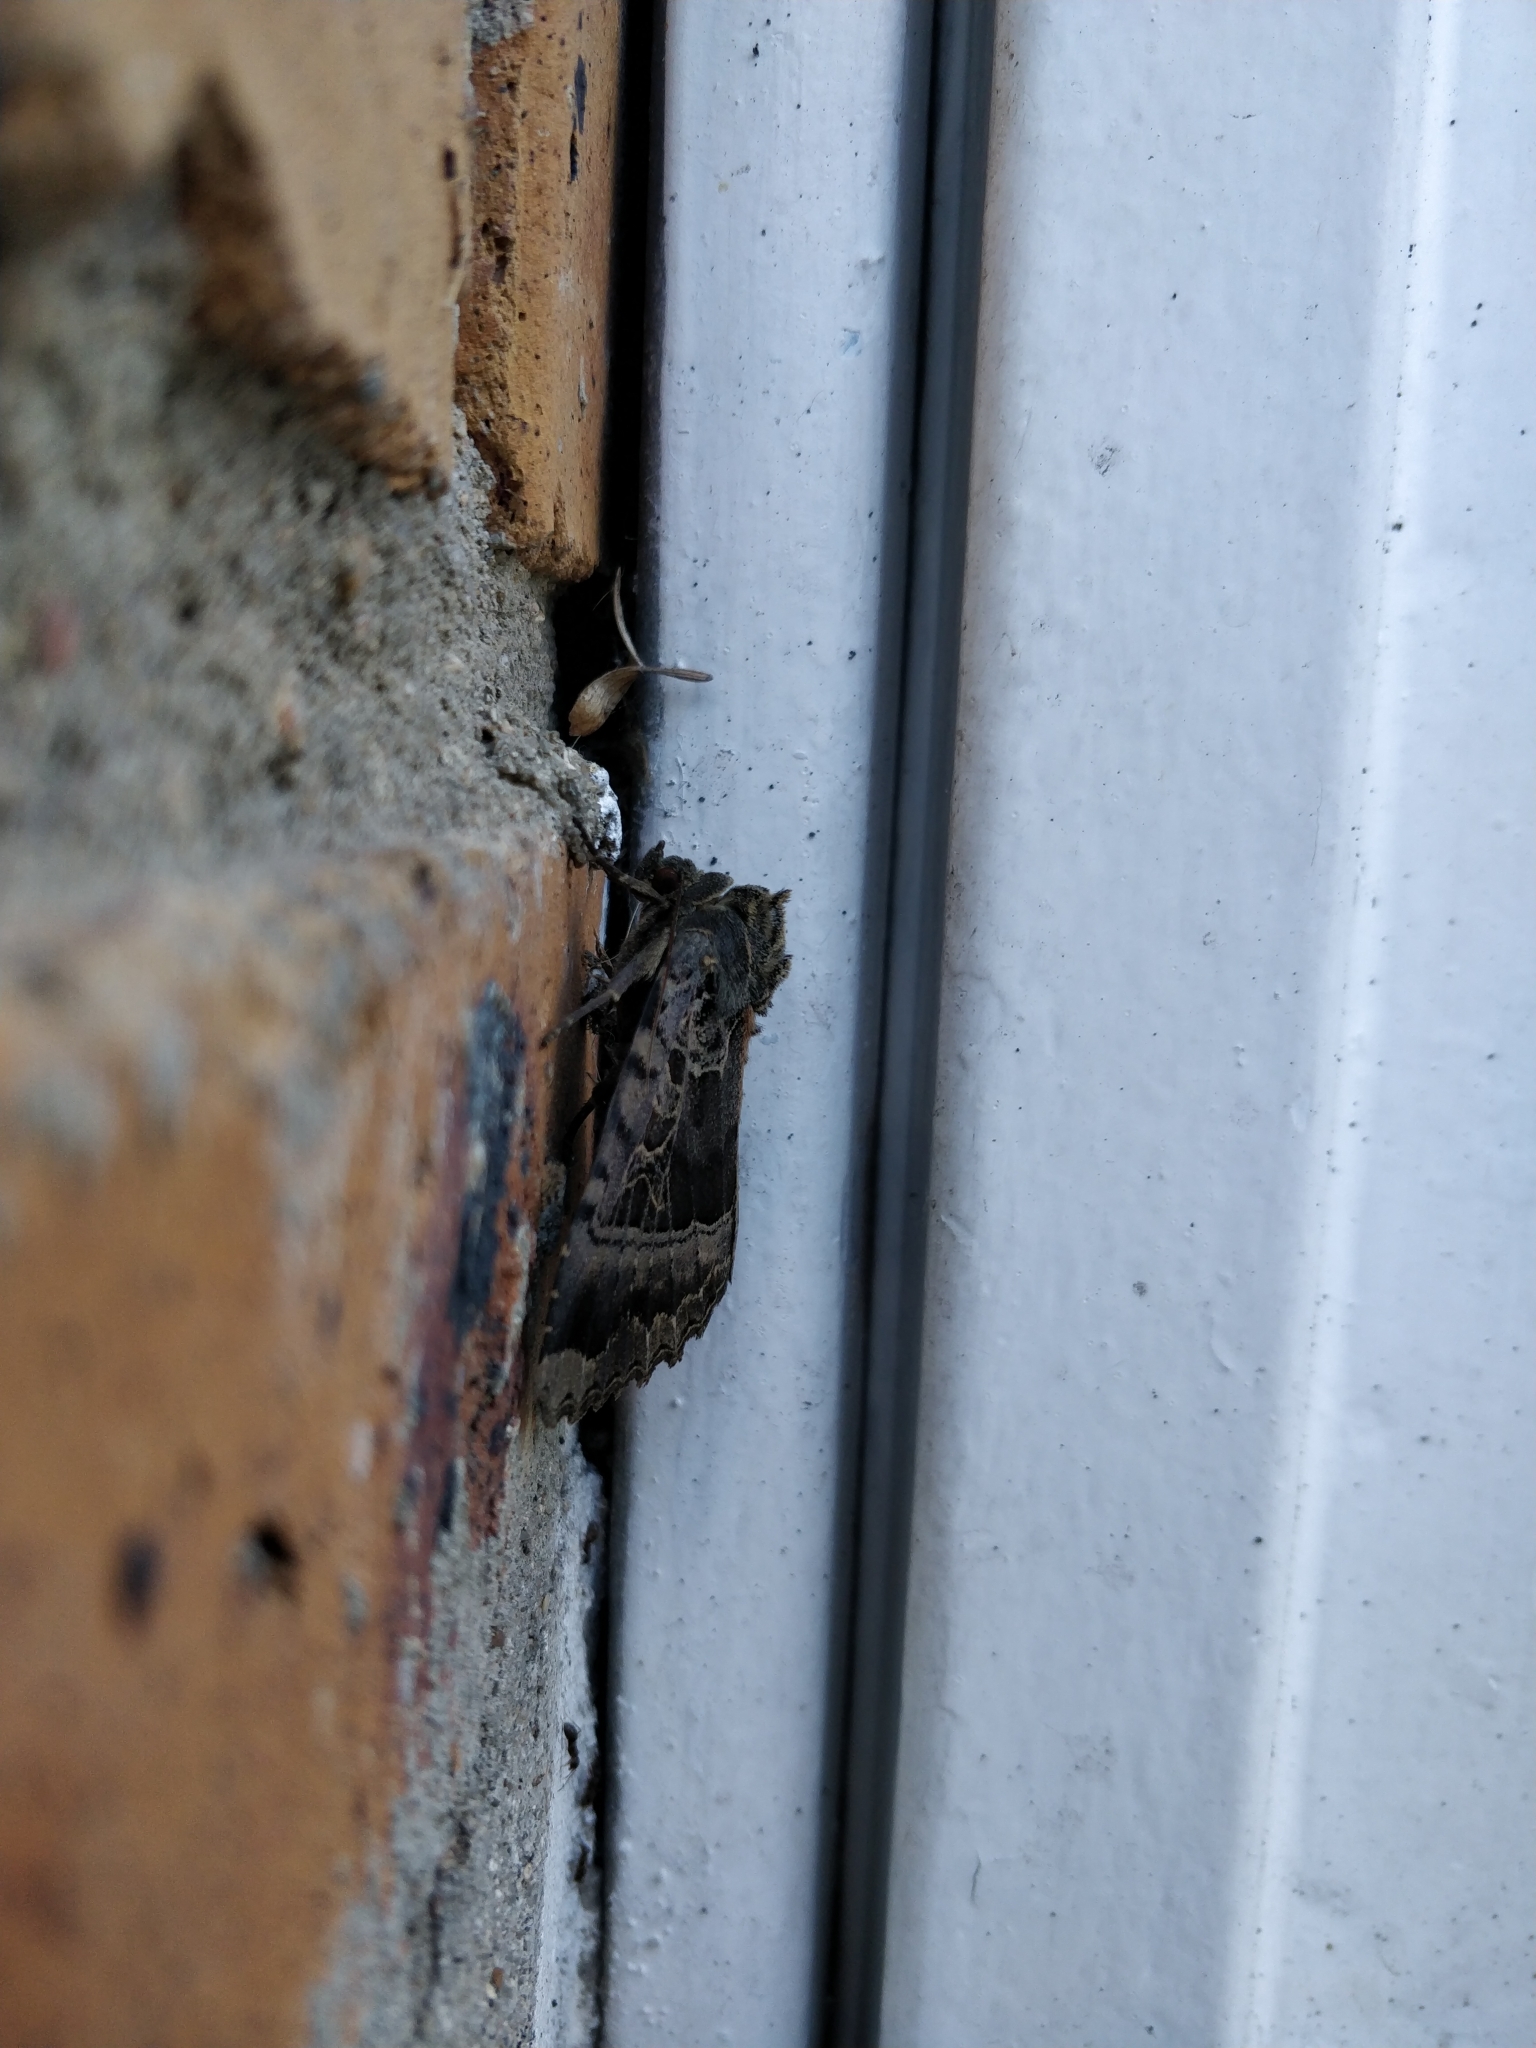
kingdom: Animalia
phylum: Arthropoda
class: Insecta
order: Lepidoptera
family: Noctuidae
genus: Mormo
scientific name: Mormo maura
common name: Old lady
